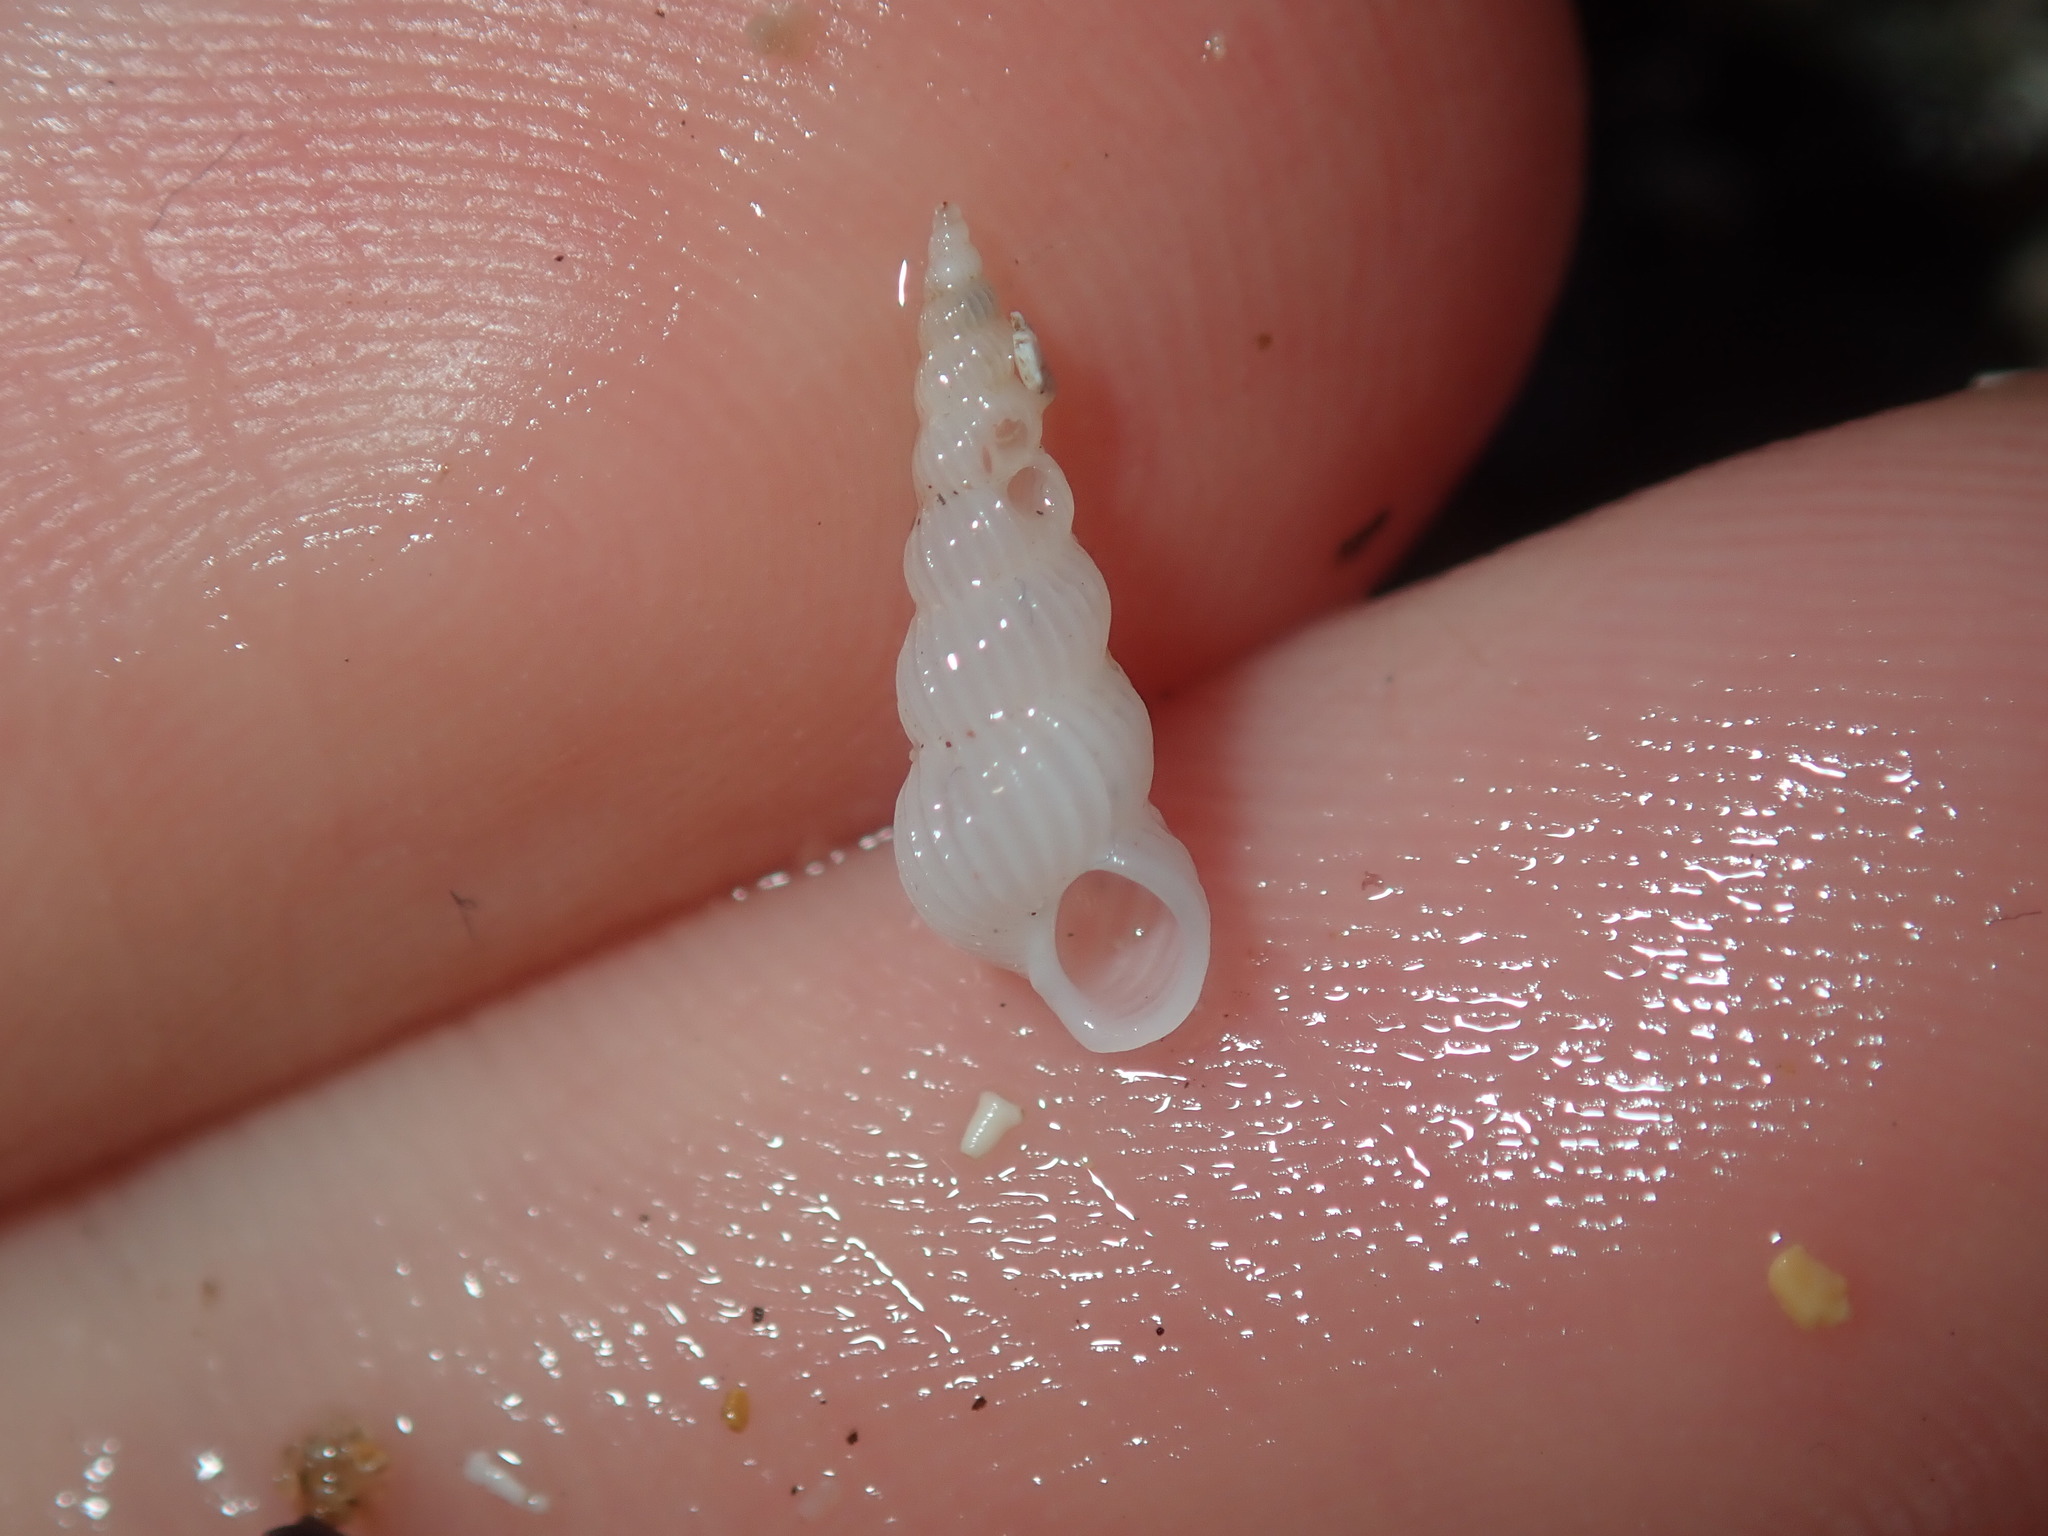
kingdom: Animalia
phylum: Mollusca
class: Gastropoda
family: Epitoniidae
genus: Epitonium
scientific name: Epitonium jukesianum
